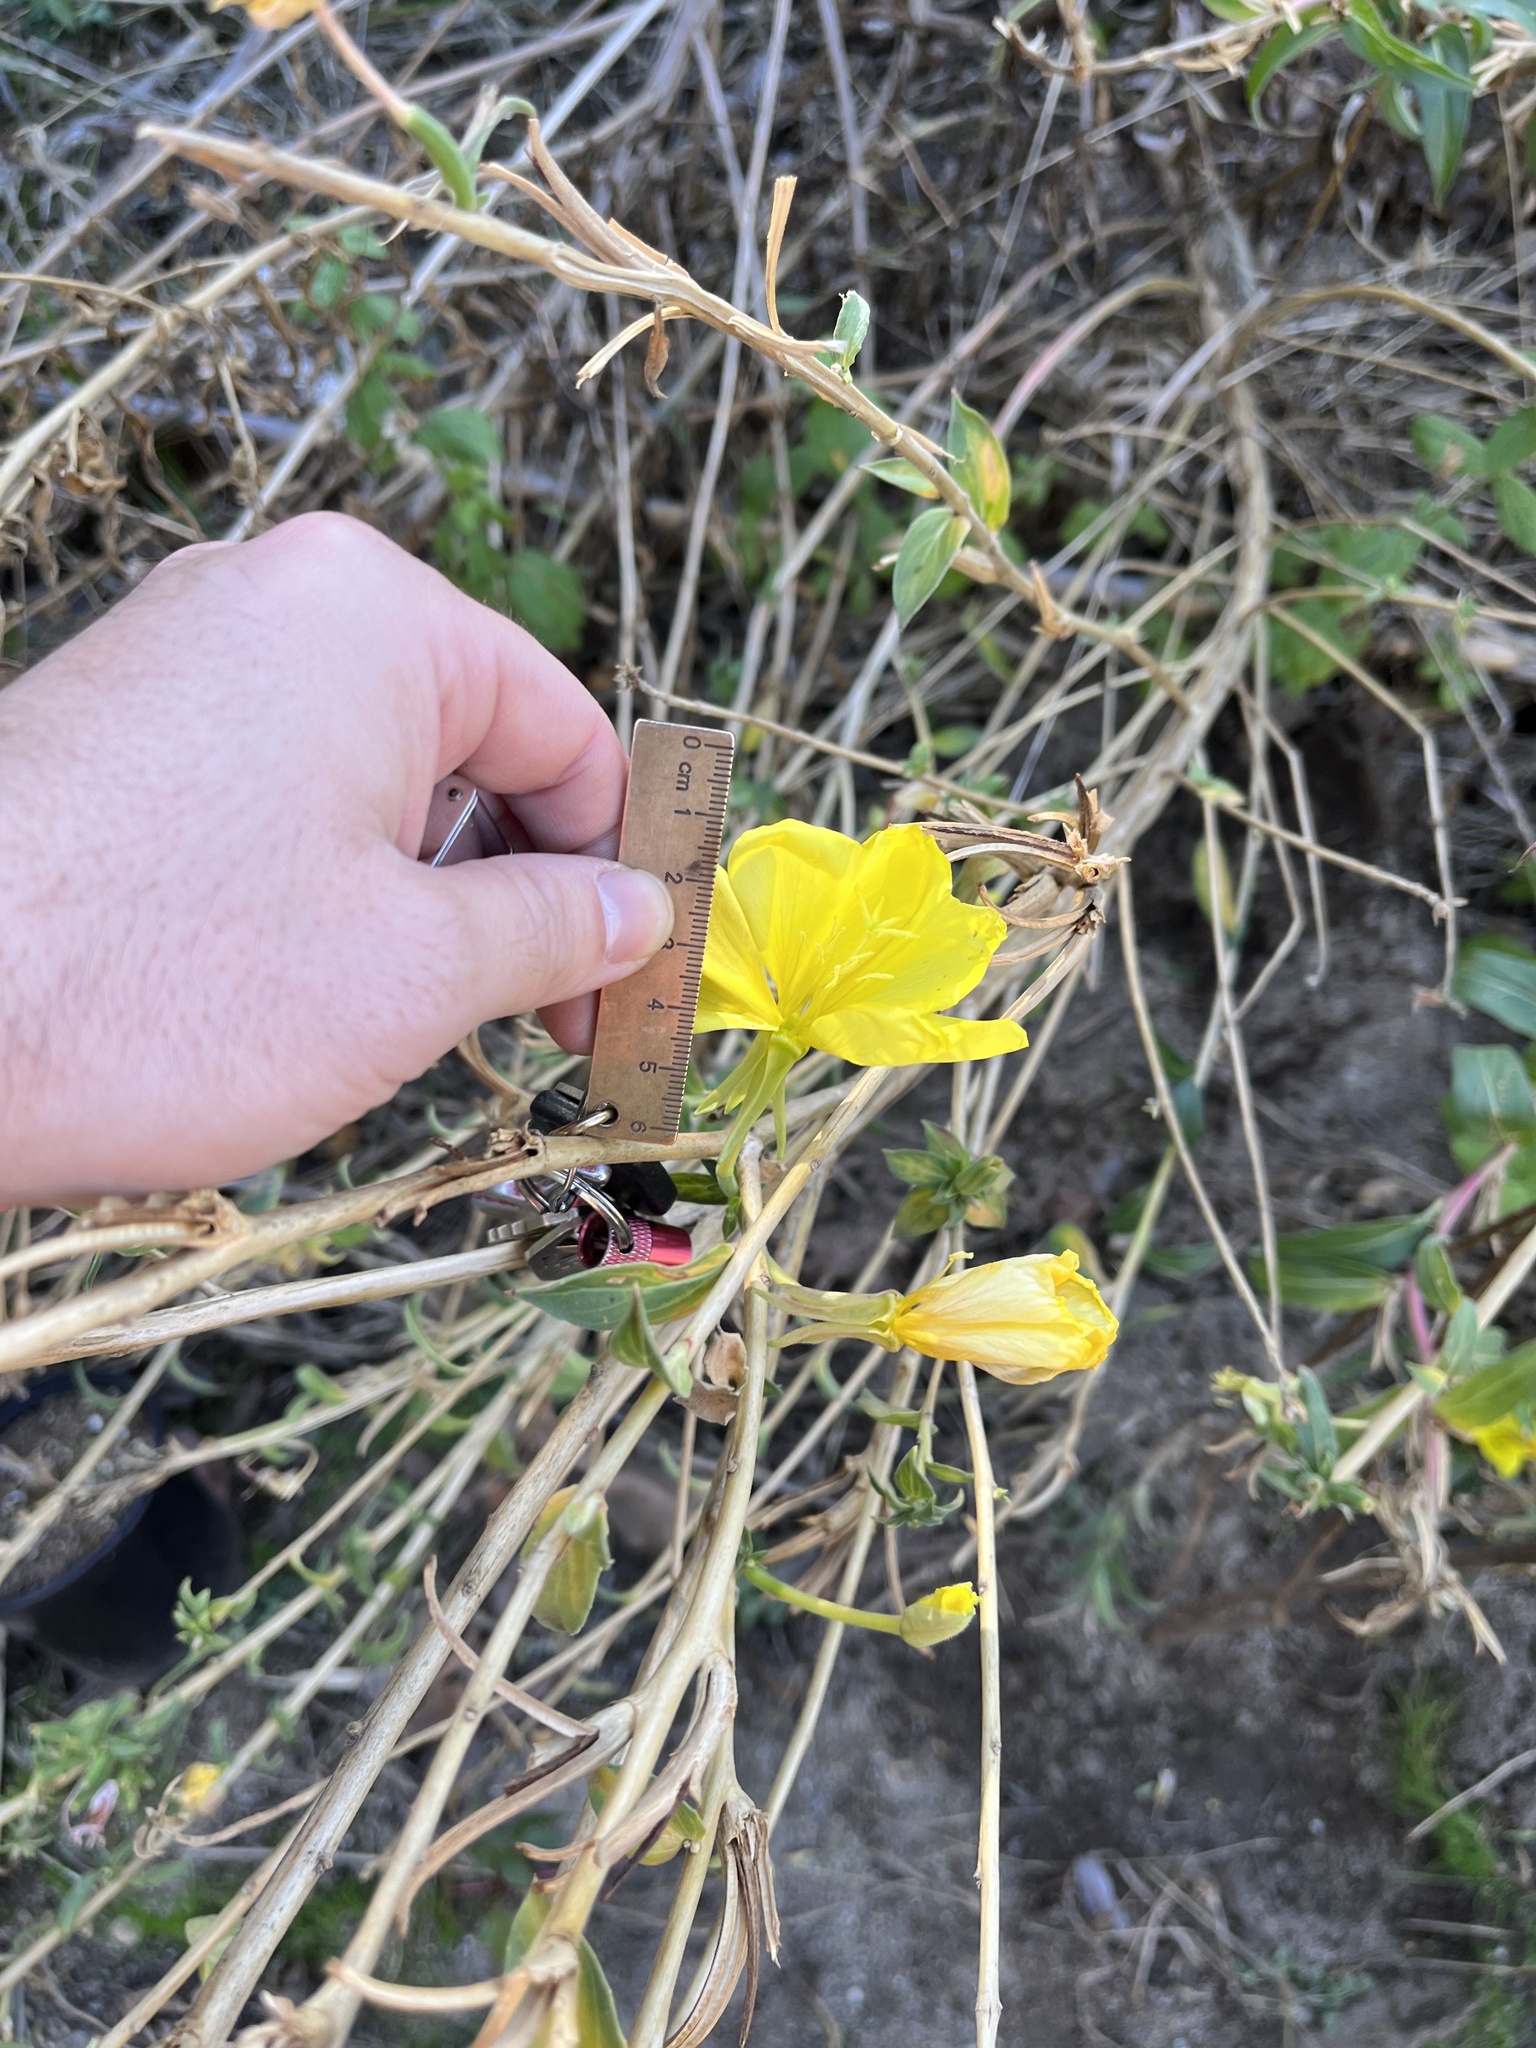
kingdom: Plantae
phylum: Tracheophyta
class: Magnoliopsida
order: Myrtales
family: Onagraceae
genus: Oenothera
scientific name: Oenothera elata
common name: Hooker's evening-primrose
